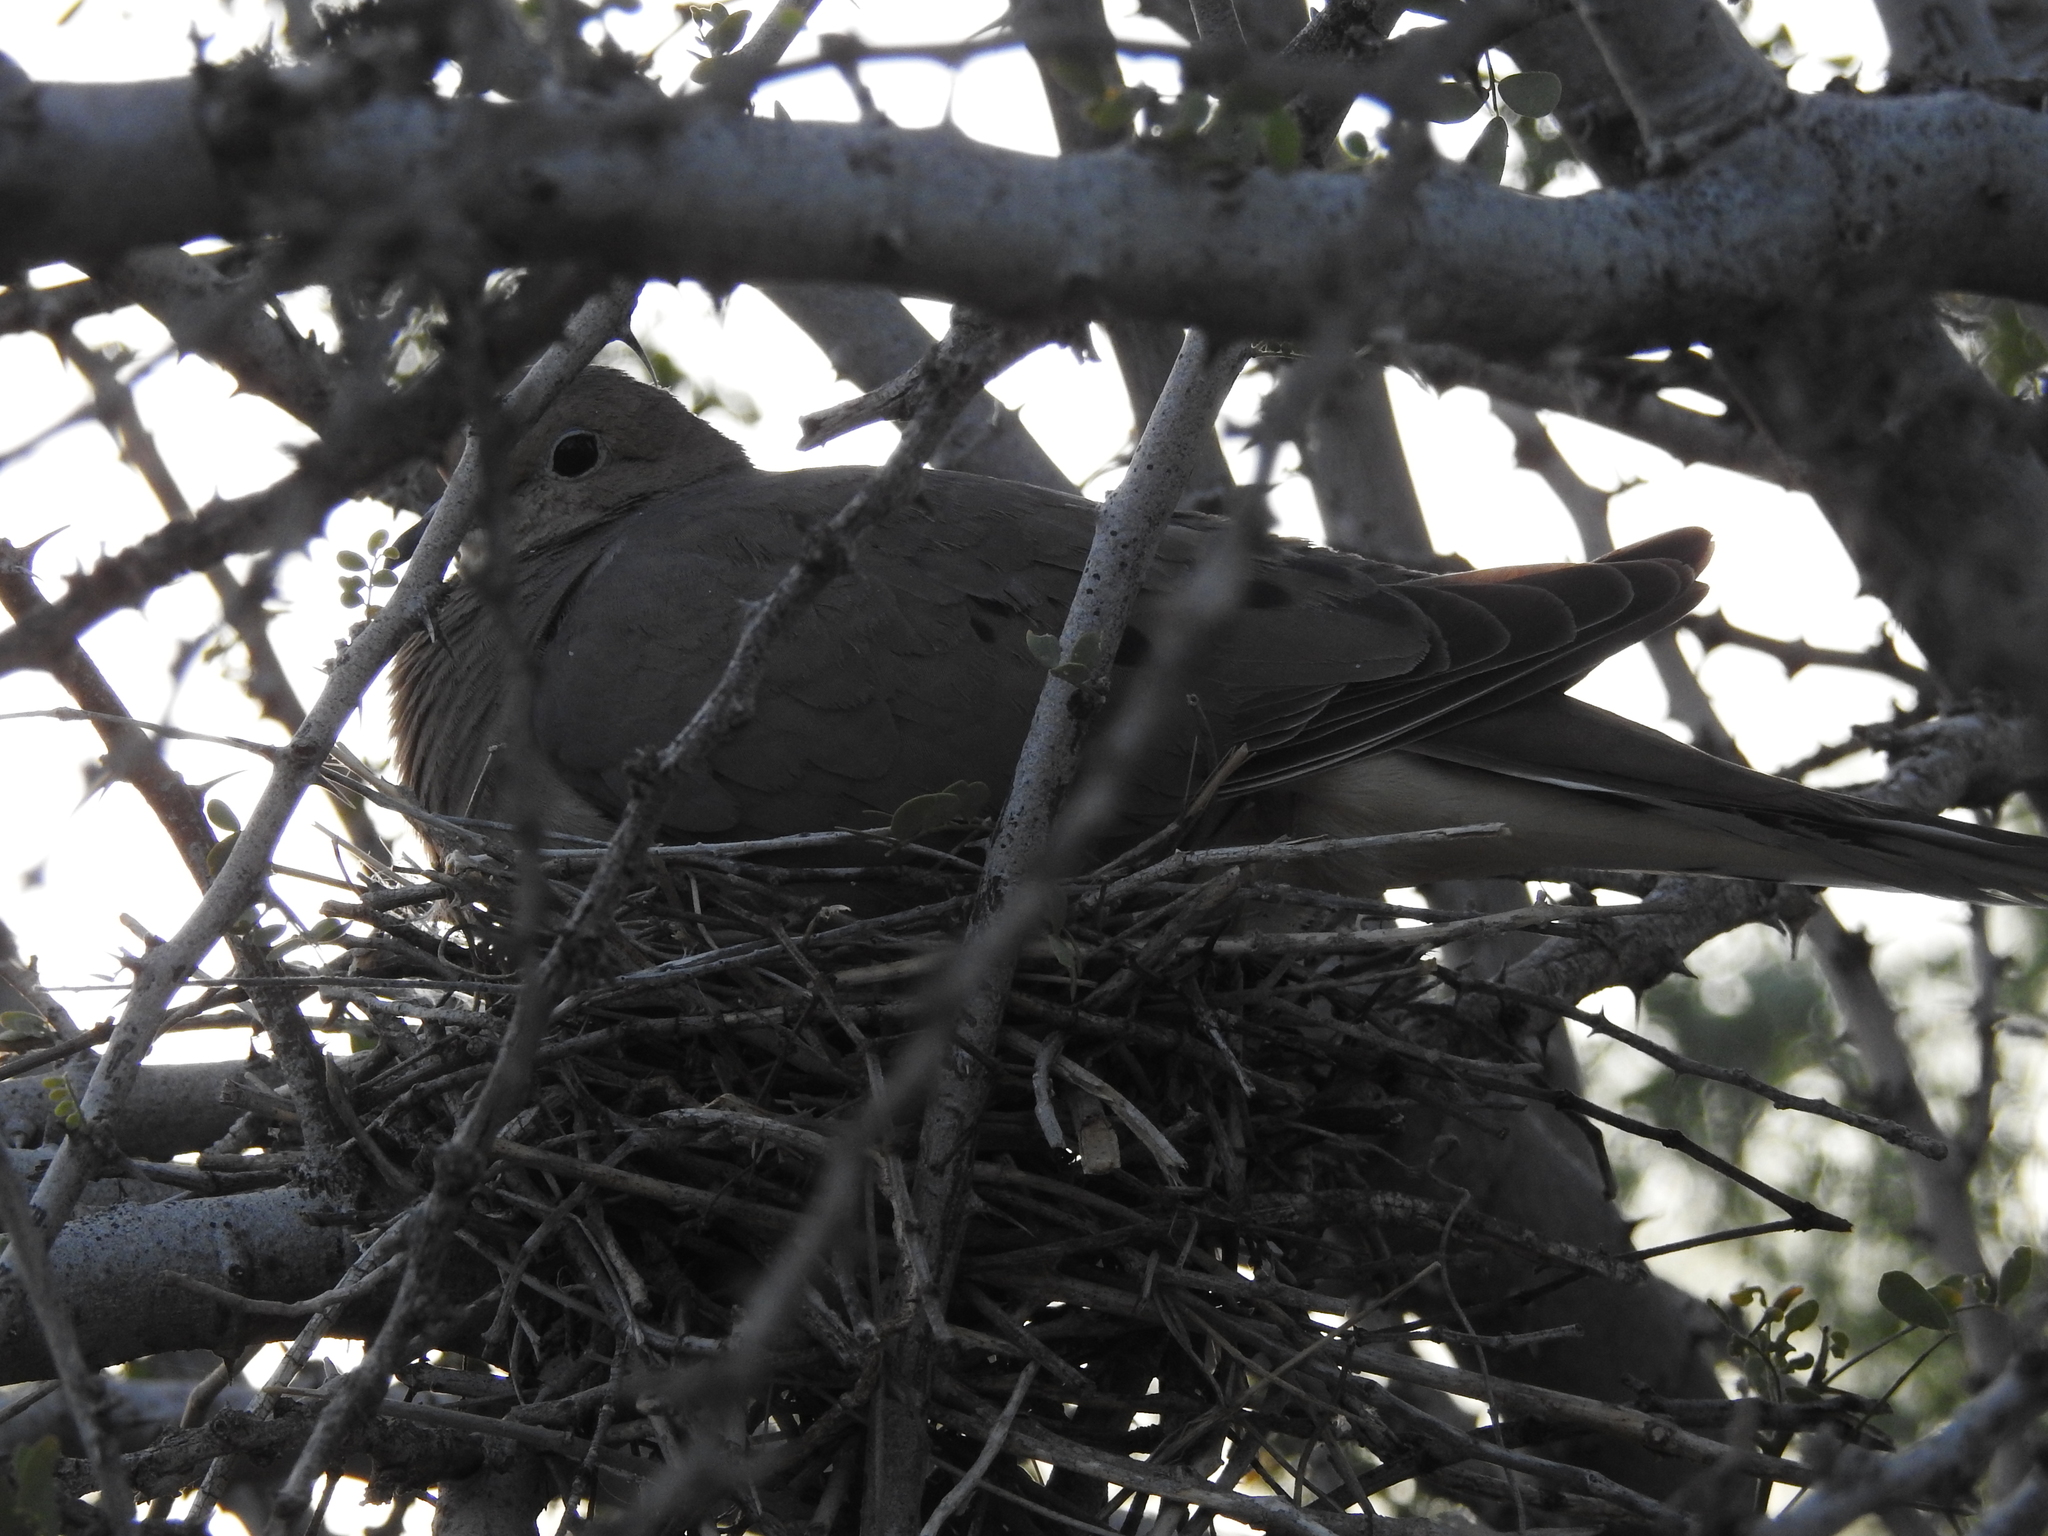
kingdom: Animalia
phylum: Chordata
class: Aves
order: Columbiformes
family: Columbidae
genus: Zenaida
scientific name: Zenaida macroura
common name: Mourning dove
